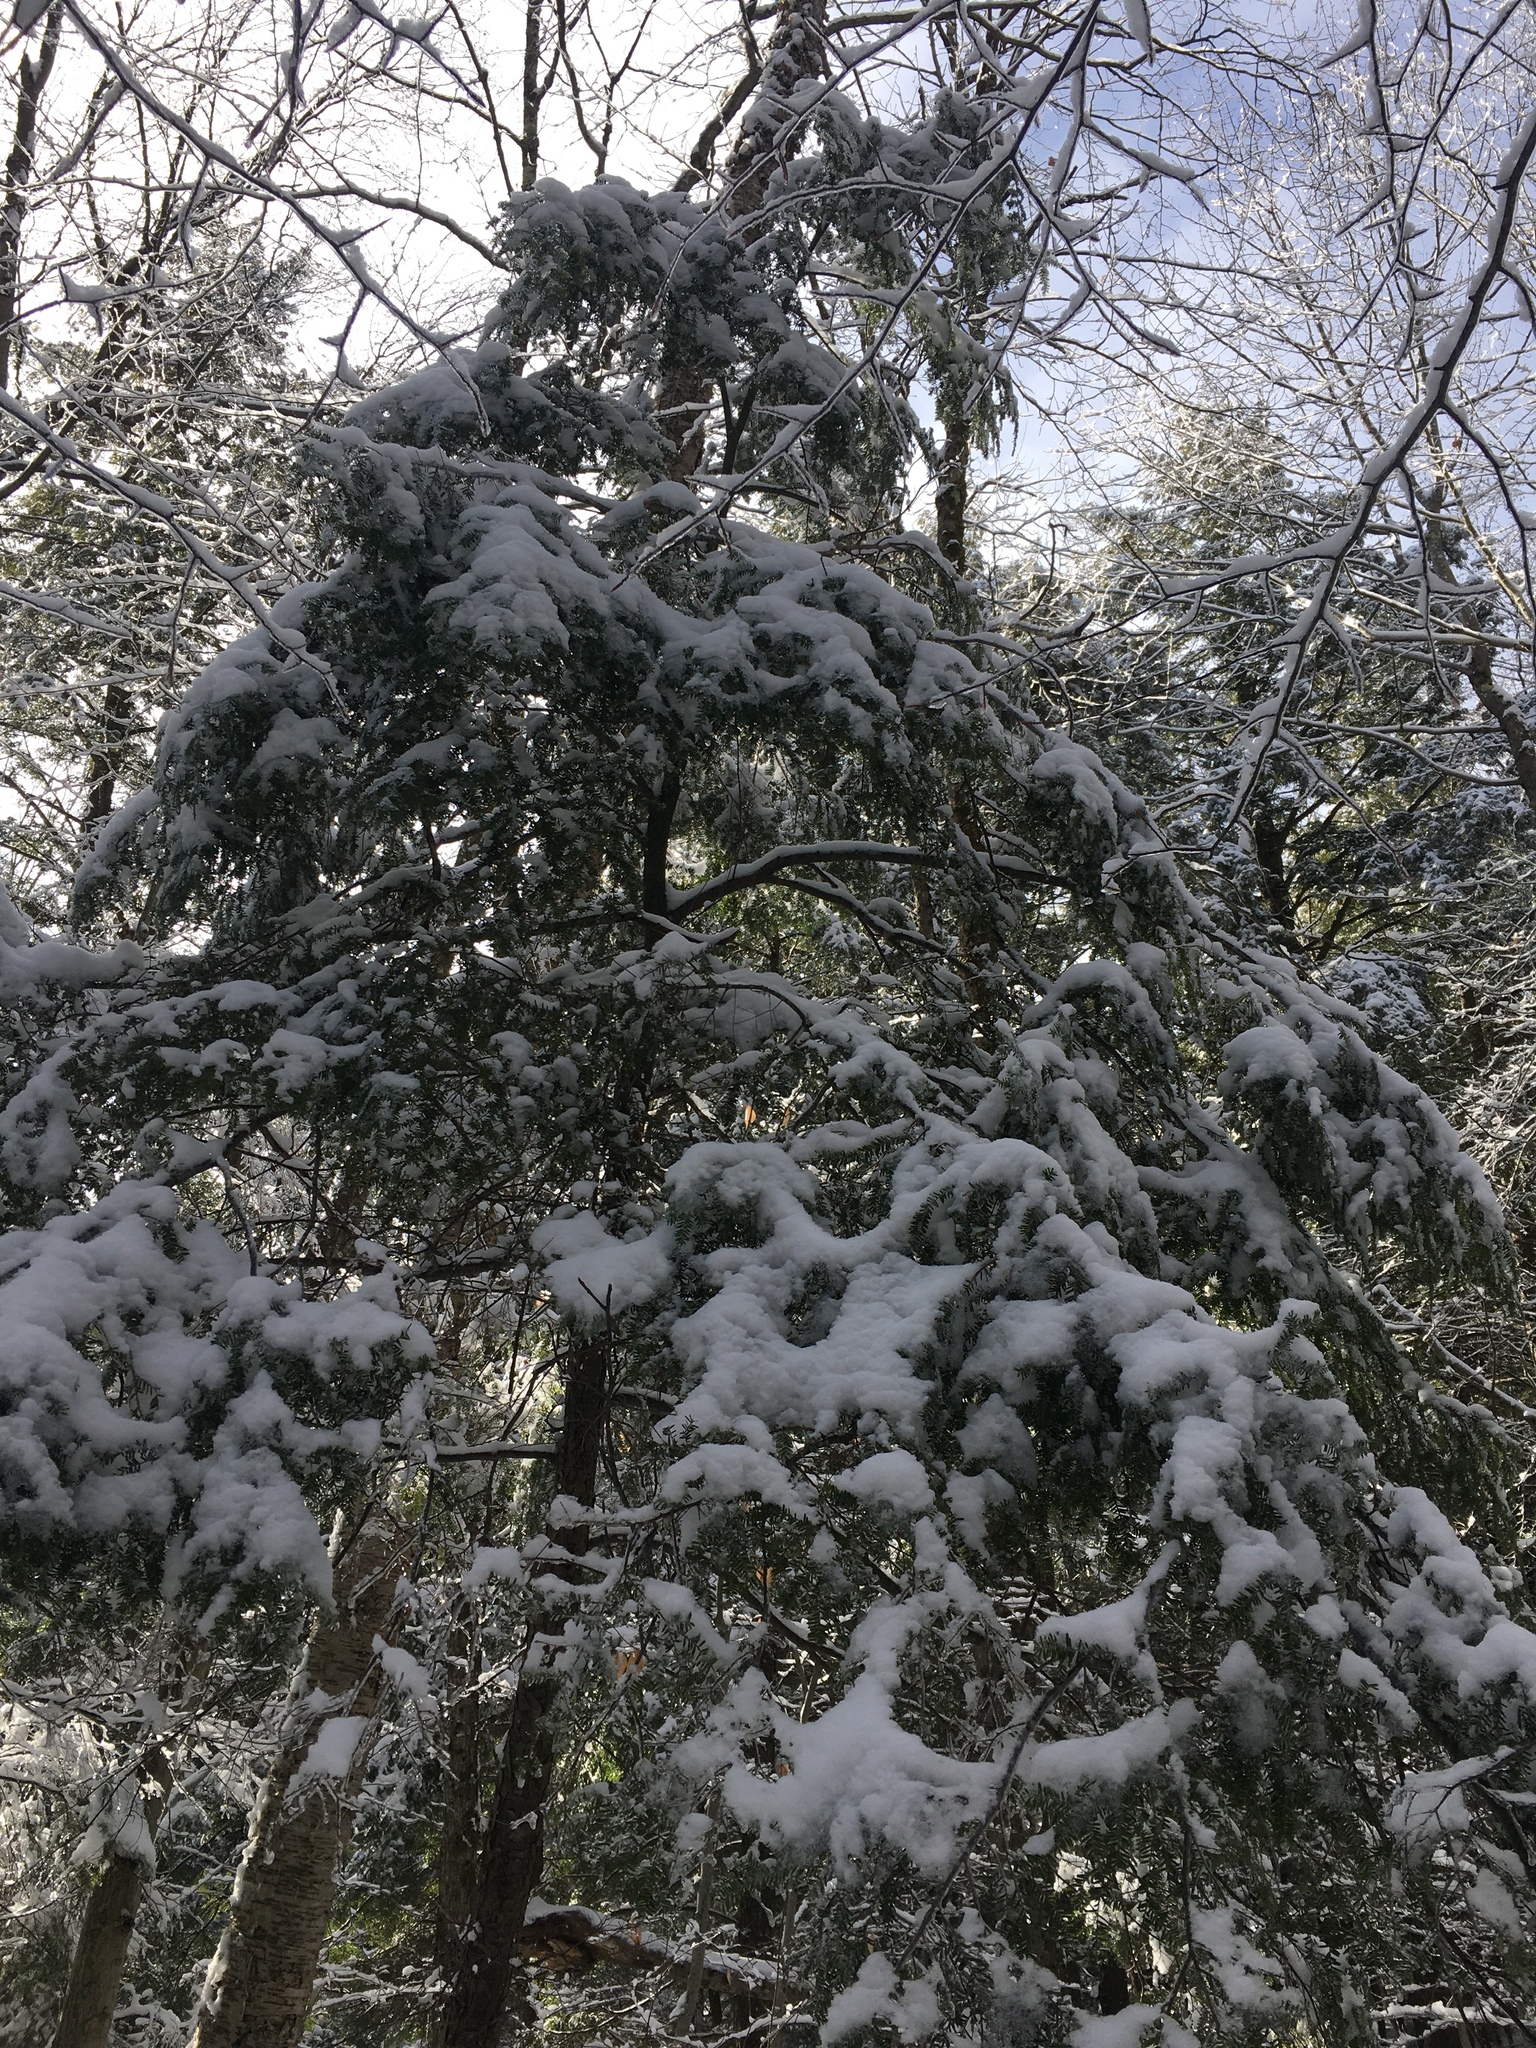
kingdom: Plantae
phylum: Tracheophyta
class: Pinopsida
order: Pinales
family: Pinaceae
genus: Tsuga
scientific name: Tsuga canadensis
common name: Eastern hemlock
